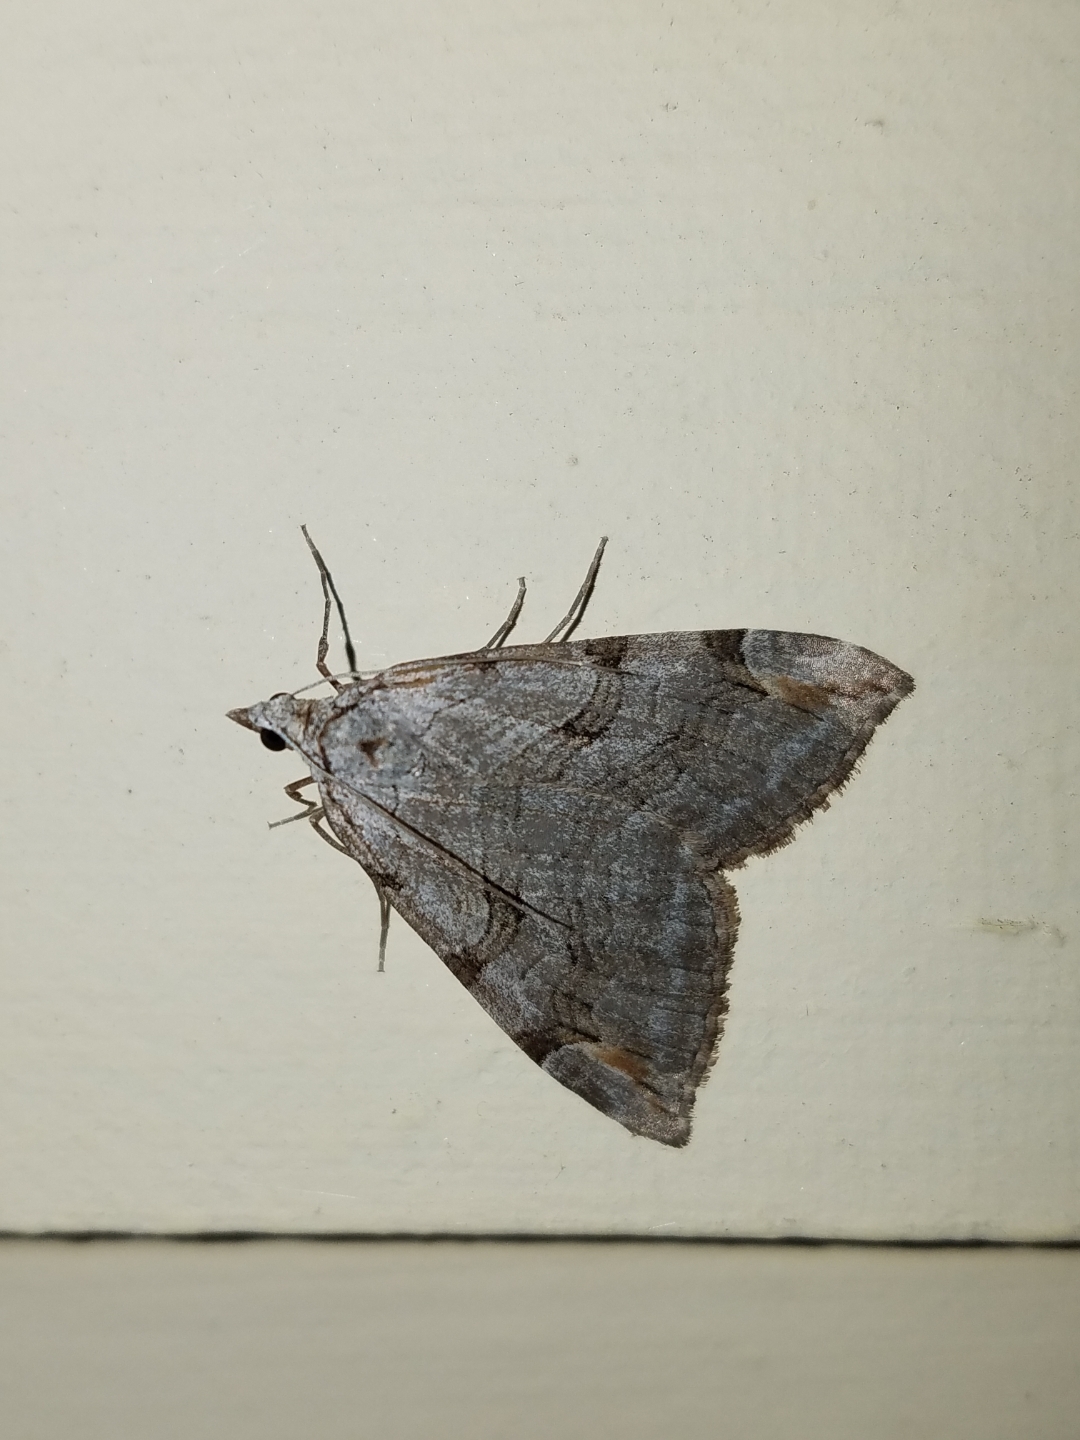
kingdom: Animalia
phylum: Arthropoda
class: Insecta
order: Lepidoptera
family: Geometridae
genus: Aplocera
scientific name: Aplocera plagiata
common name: Treble-bar
